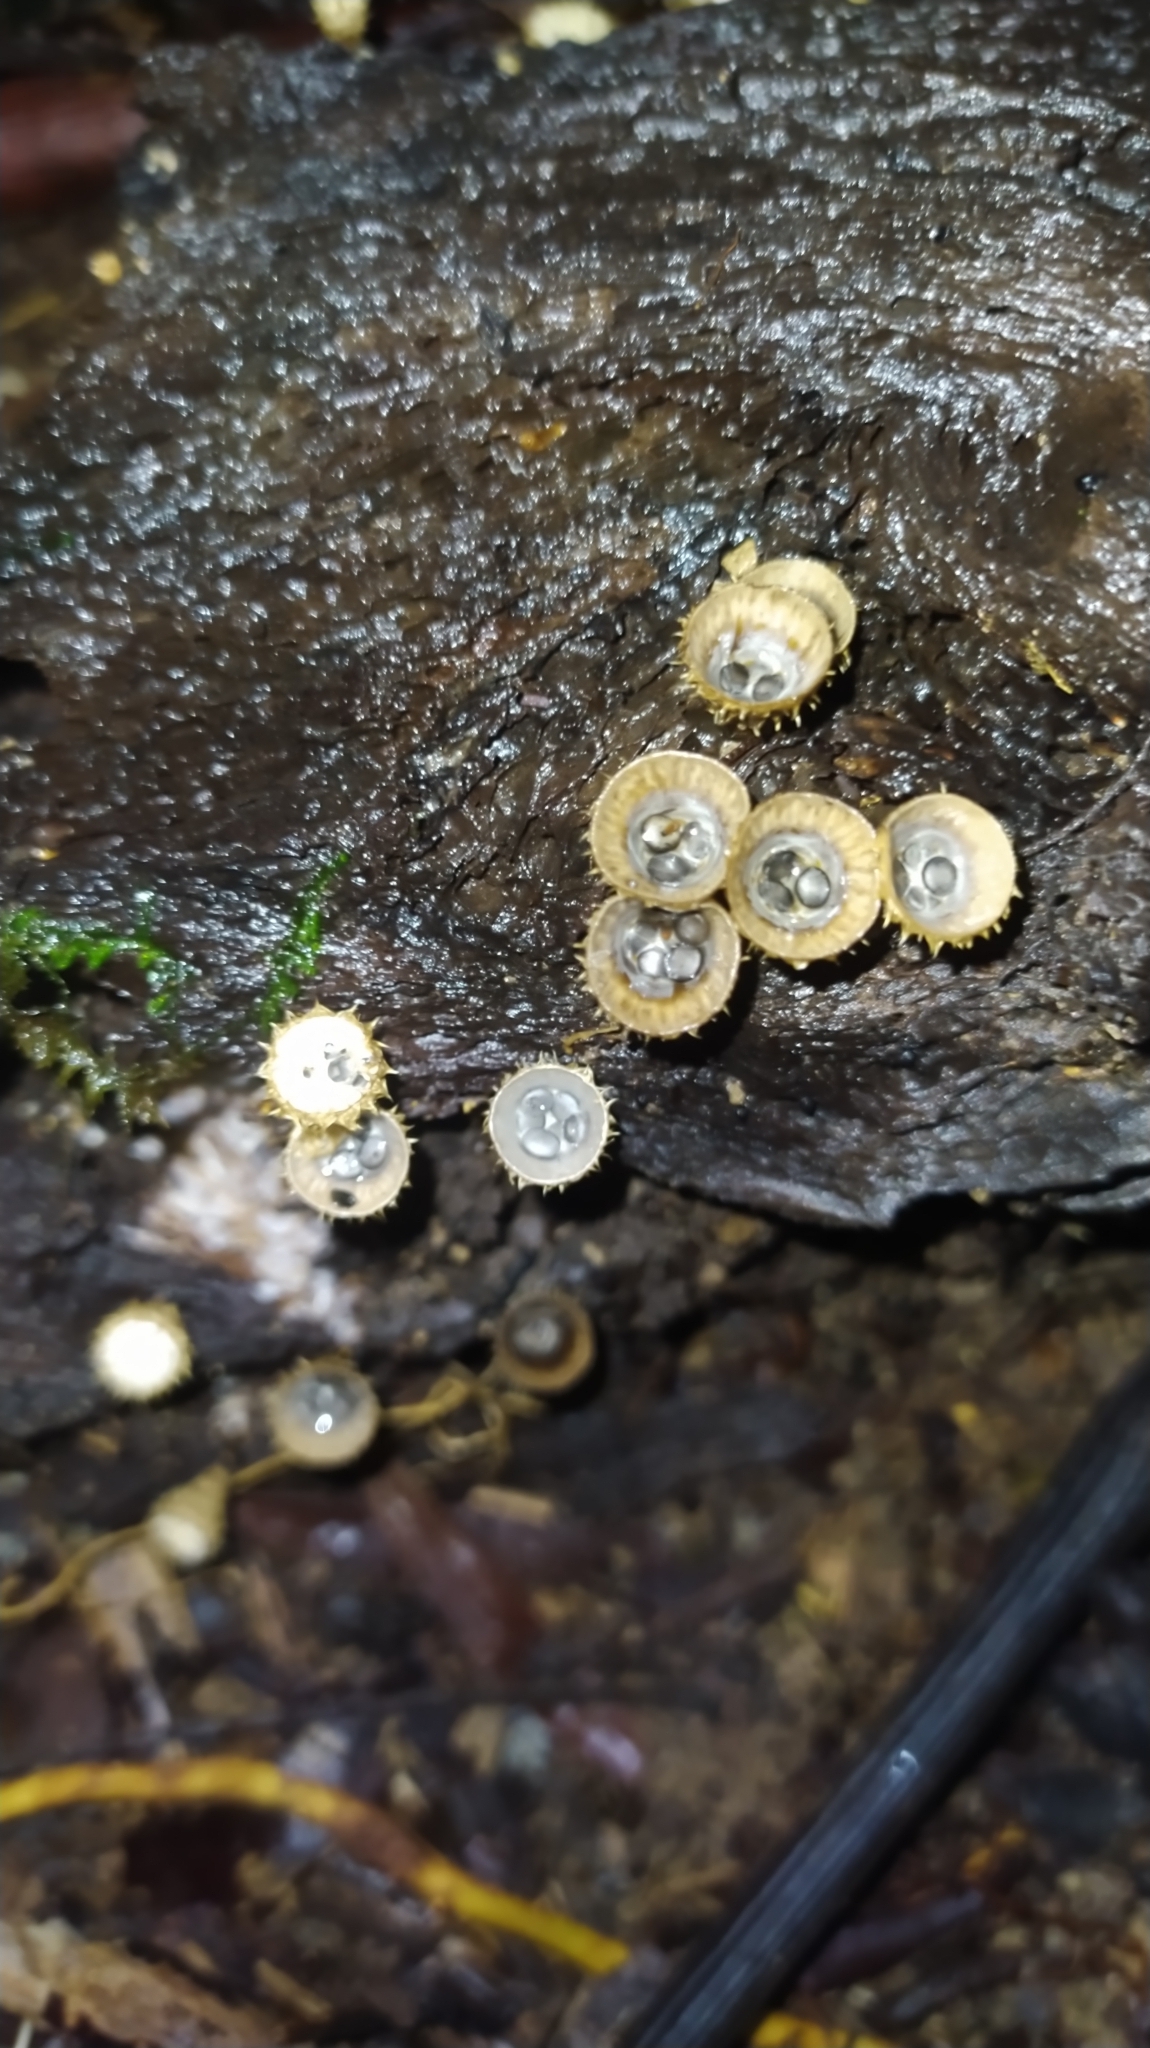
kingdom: Fungi
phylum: Basidiomycota
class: Agaricomycetes
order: Agaricales
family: Agaricaceae
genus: Cyathus
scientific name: Cyathus
